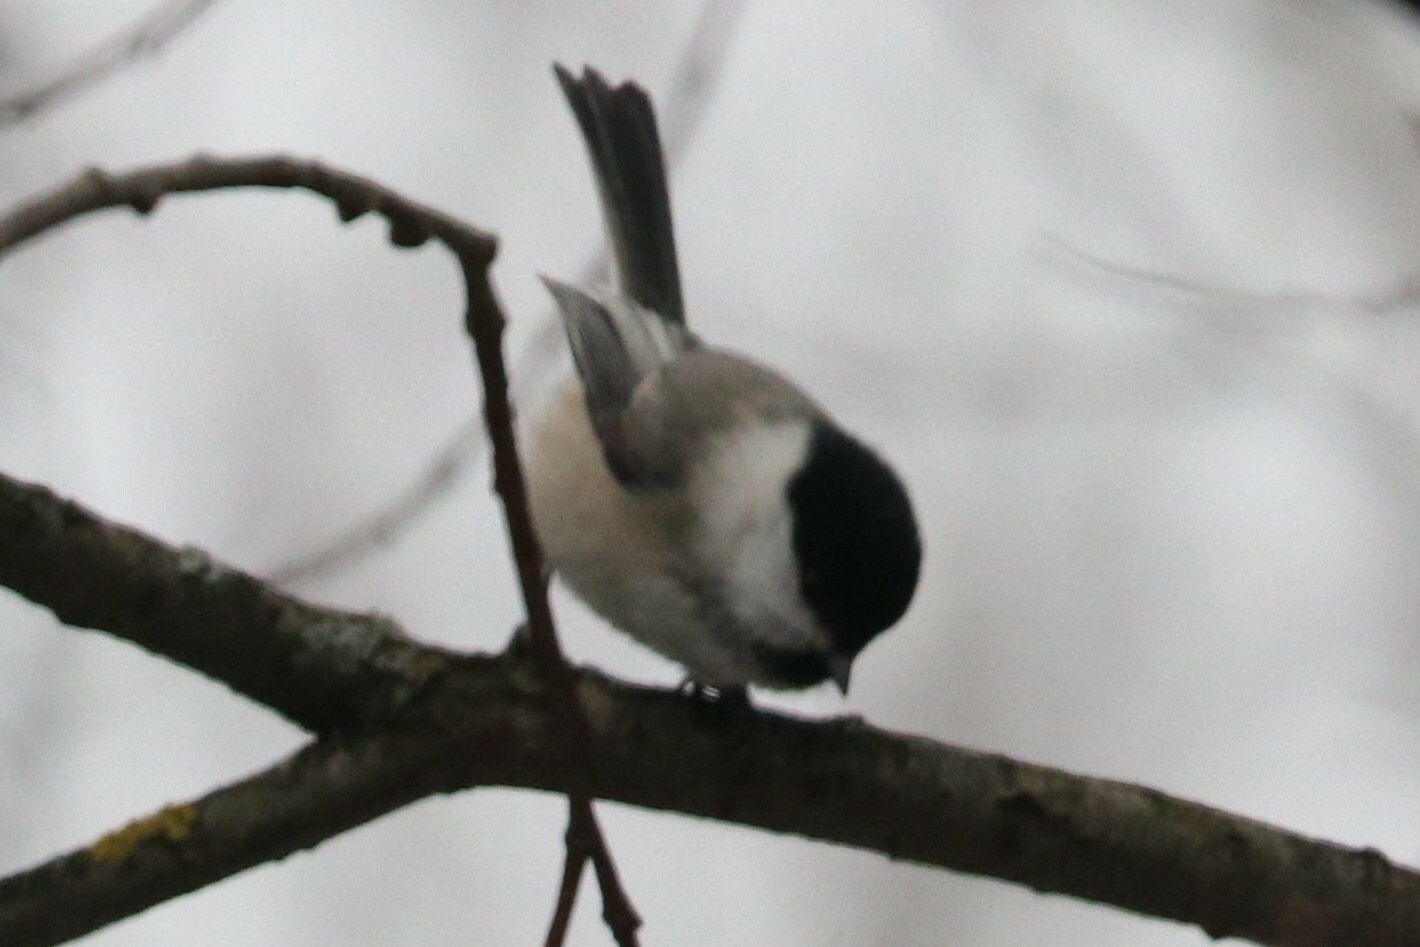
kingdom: Animalia
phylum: Chordata
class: Aves
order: Passeriformes
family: Paridae
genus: Poecile
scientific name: Poecile montanus
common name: Willow tit
